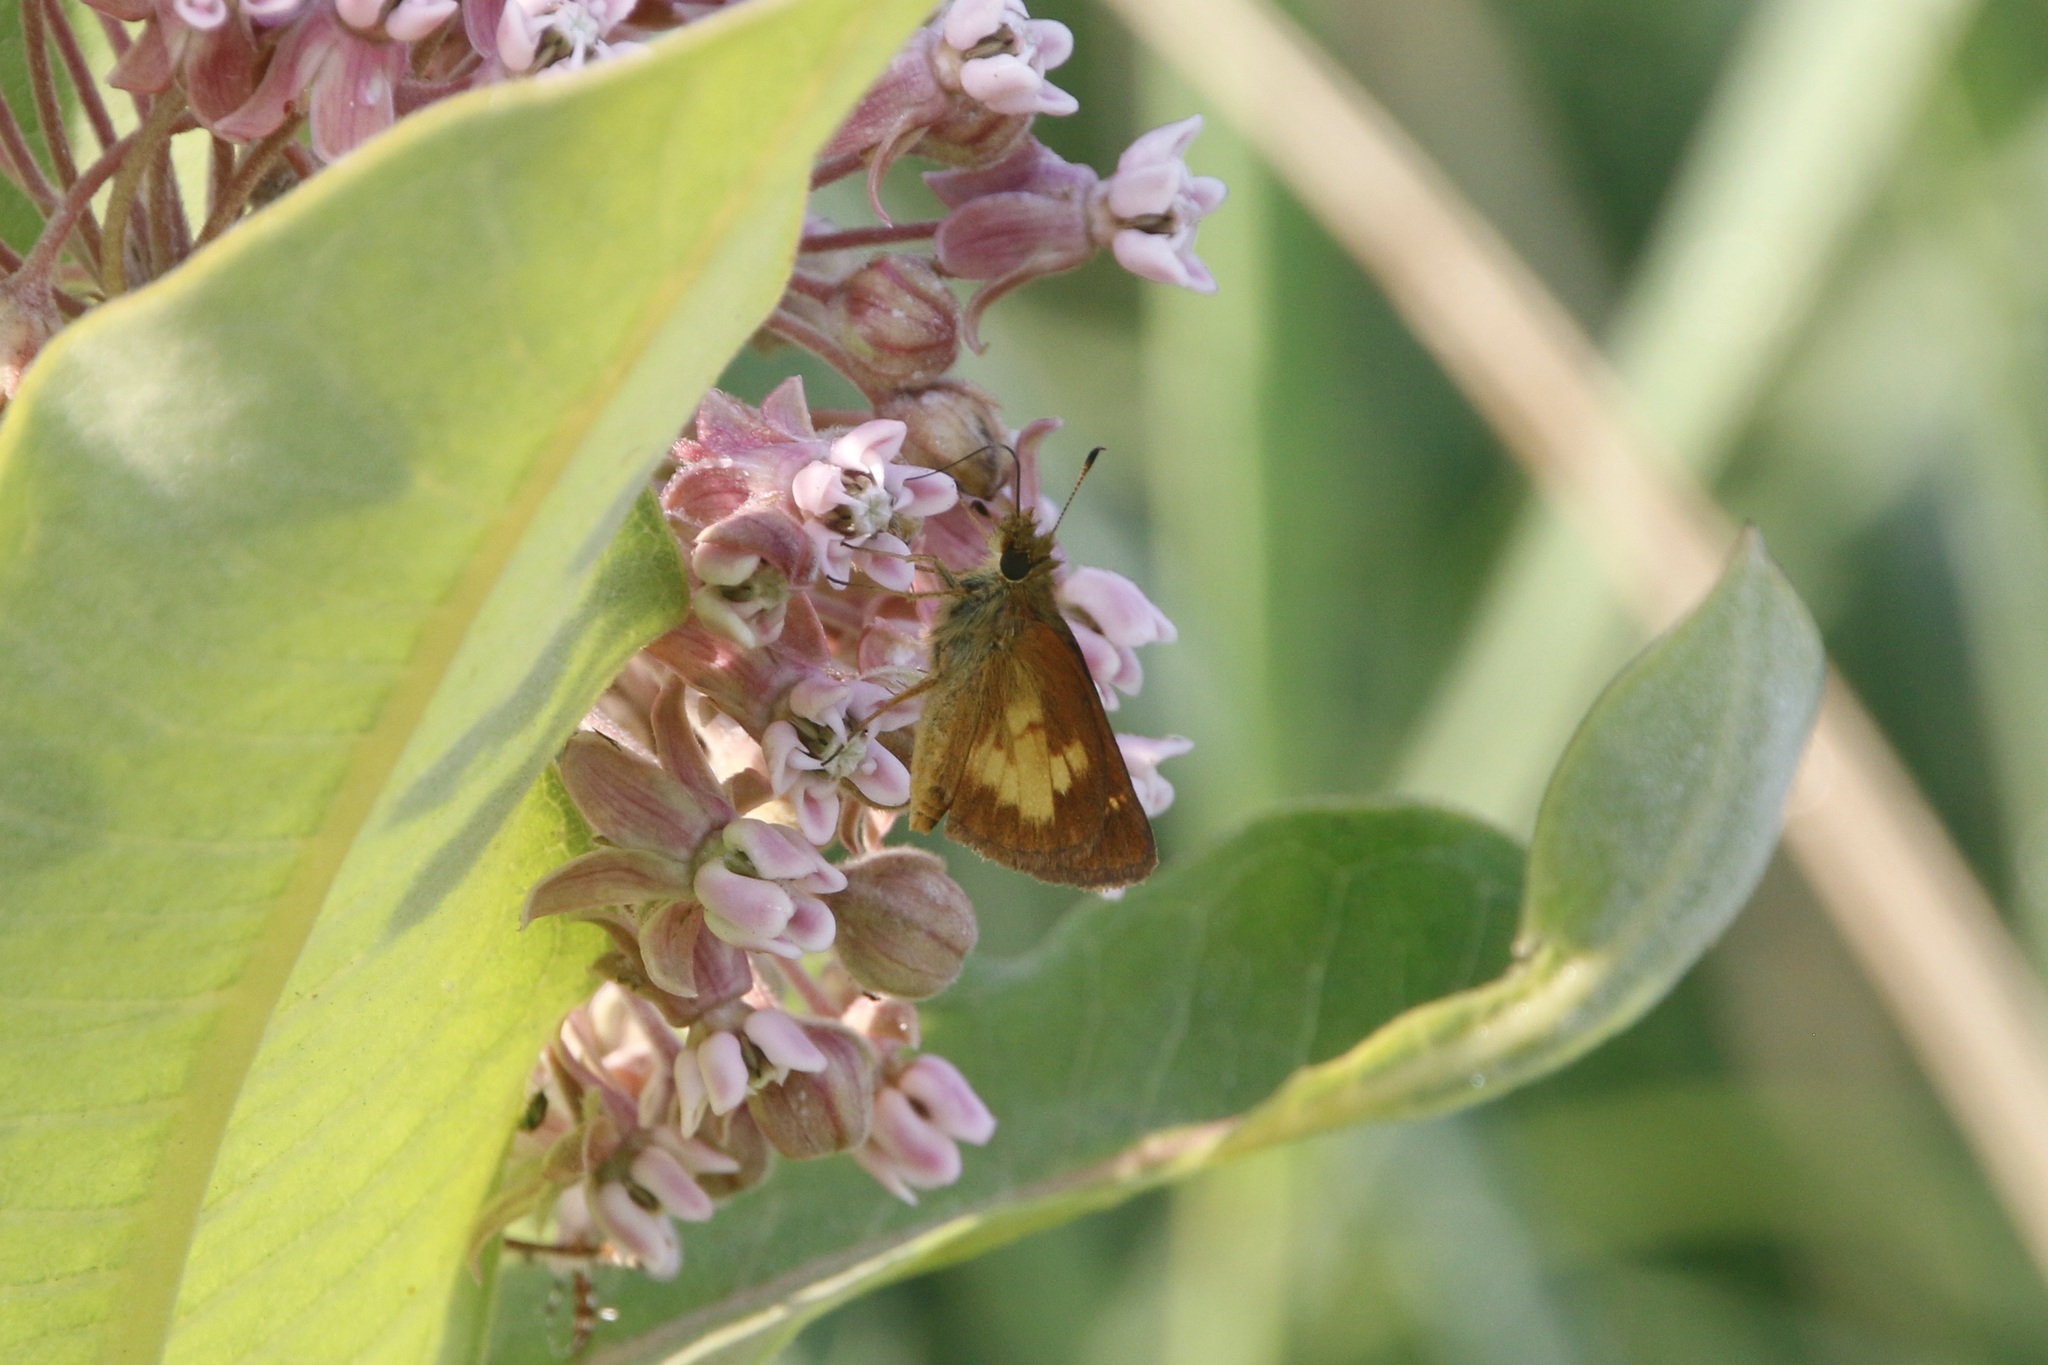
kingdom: Animalia
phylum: Arthropoda
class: Insecta
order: Lepidoptera
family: Hesperiidae
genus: Poanes
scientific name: Poanes massasoit
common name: Mulberrywing
